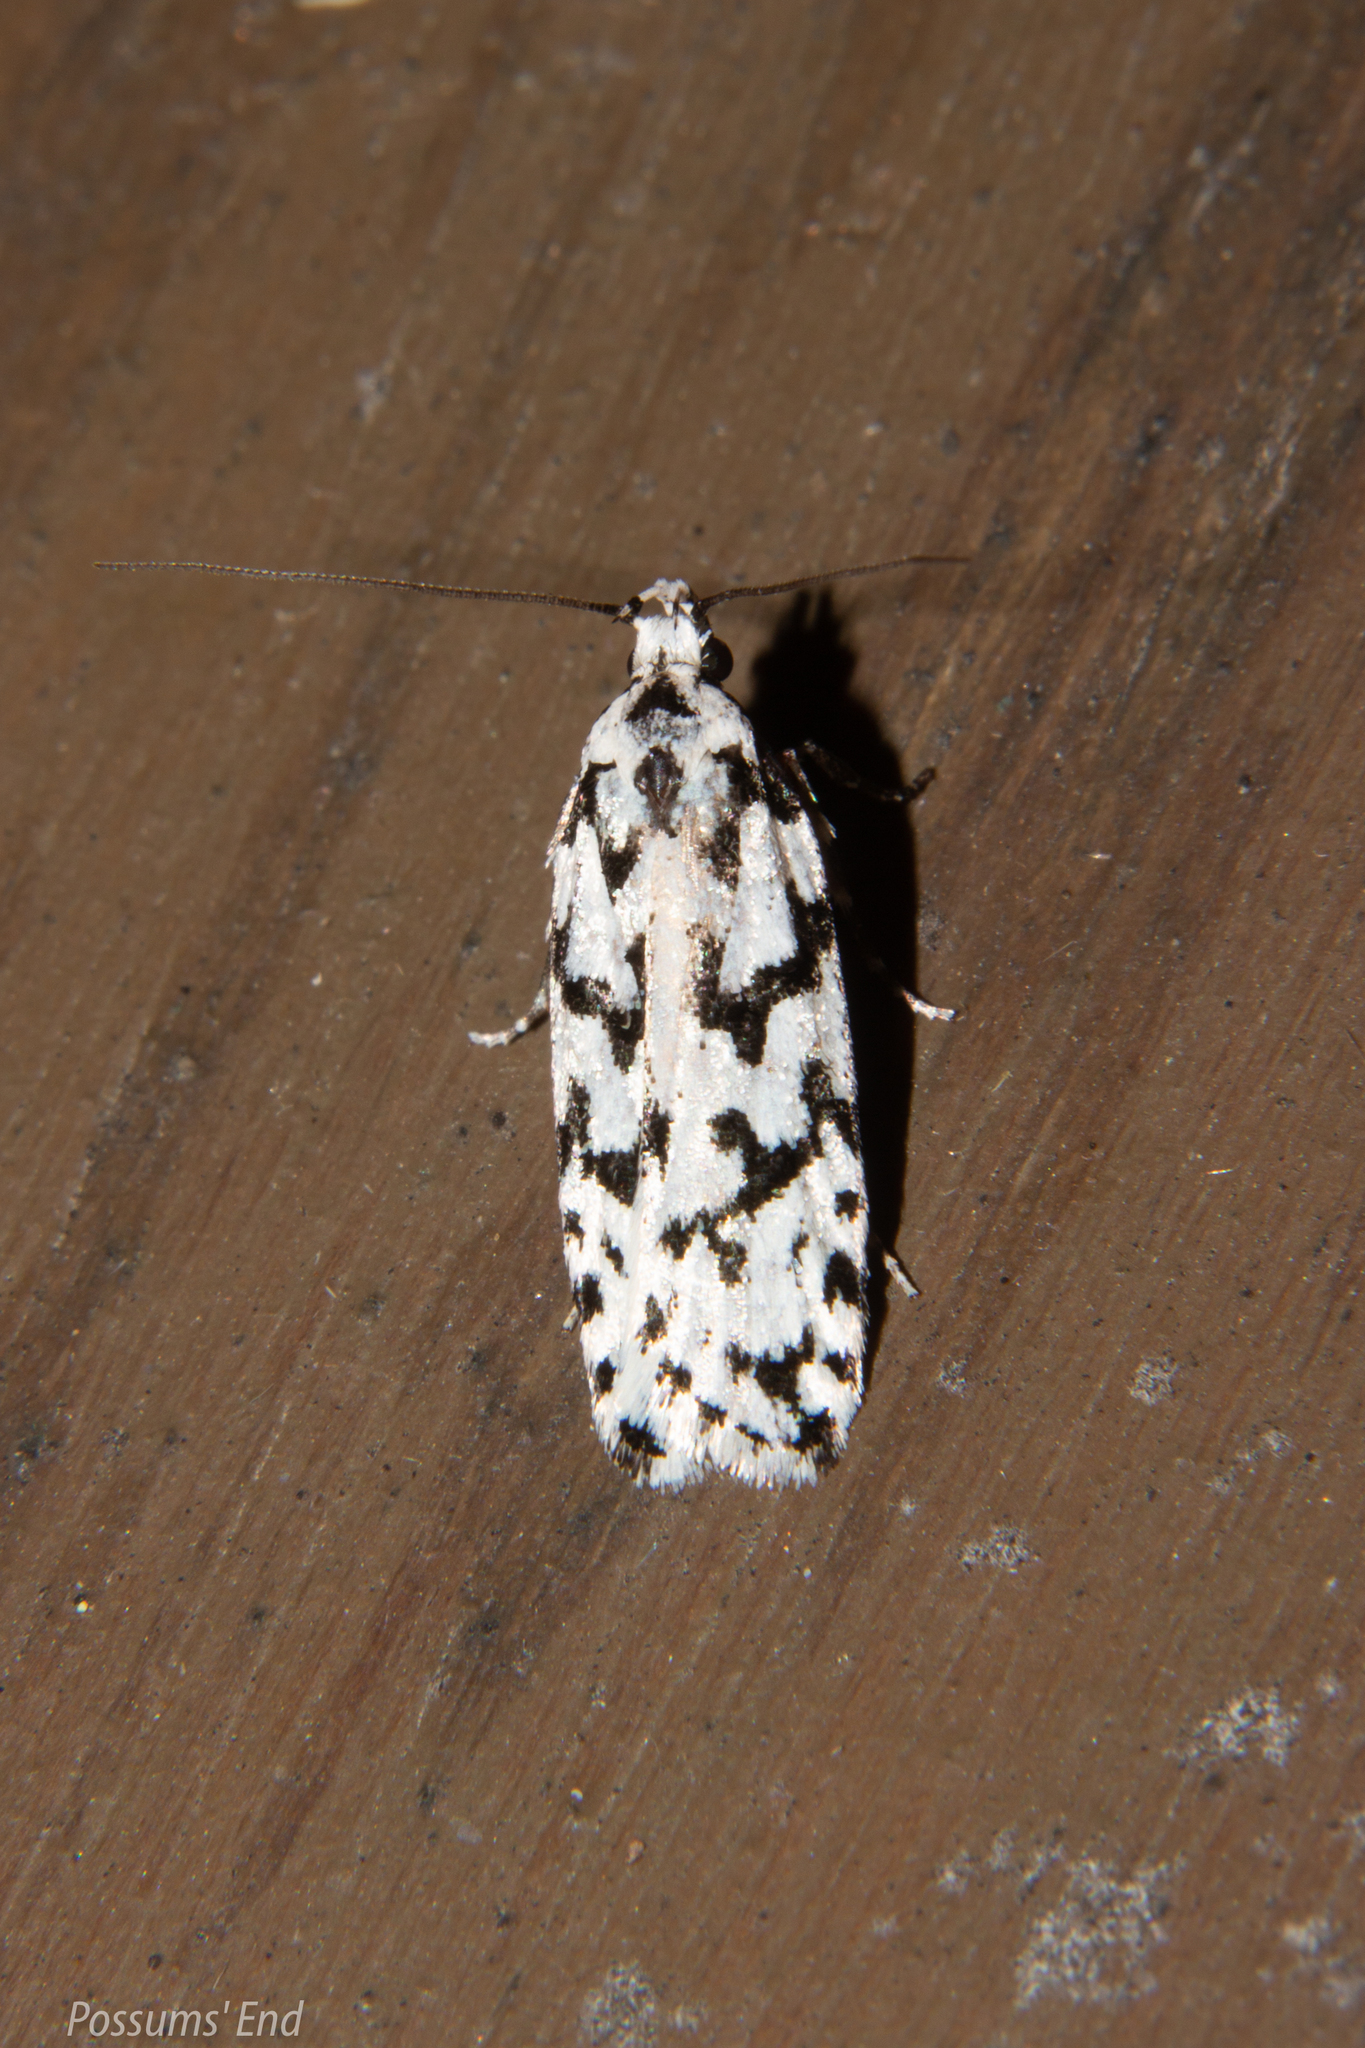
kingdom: Animalia
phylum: Arthropoda
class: Insecta
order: Lepidoptera
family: Oecophoridae
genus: Izatha
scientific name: Izatha katadiktya
